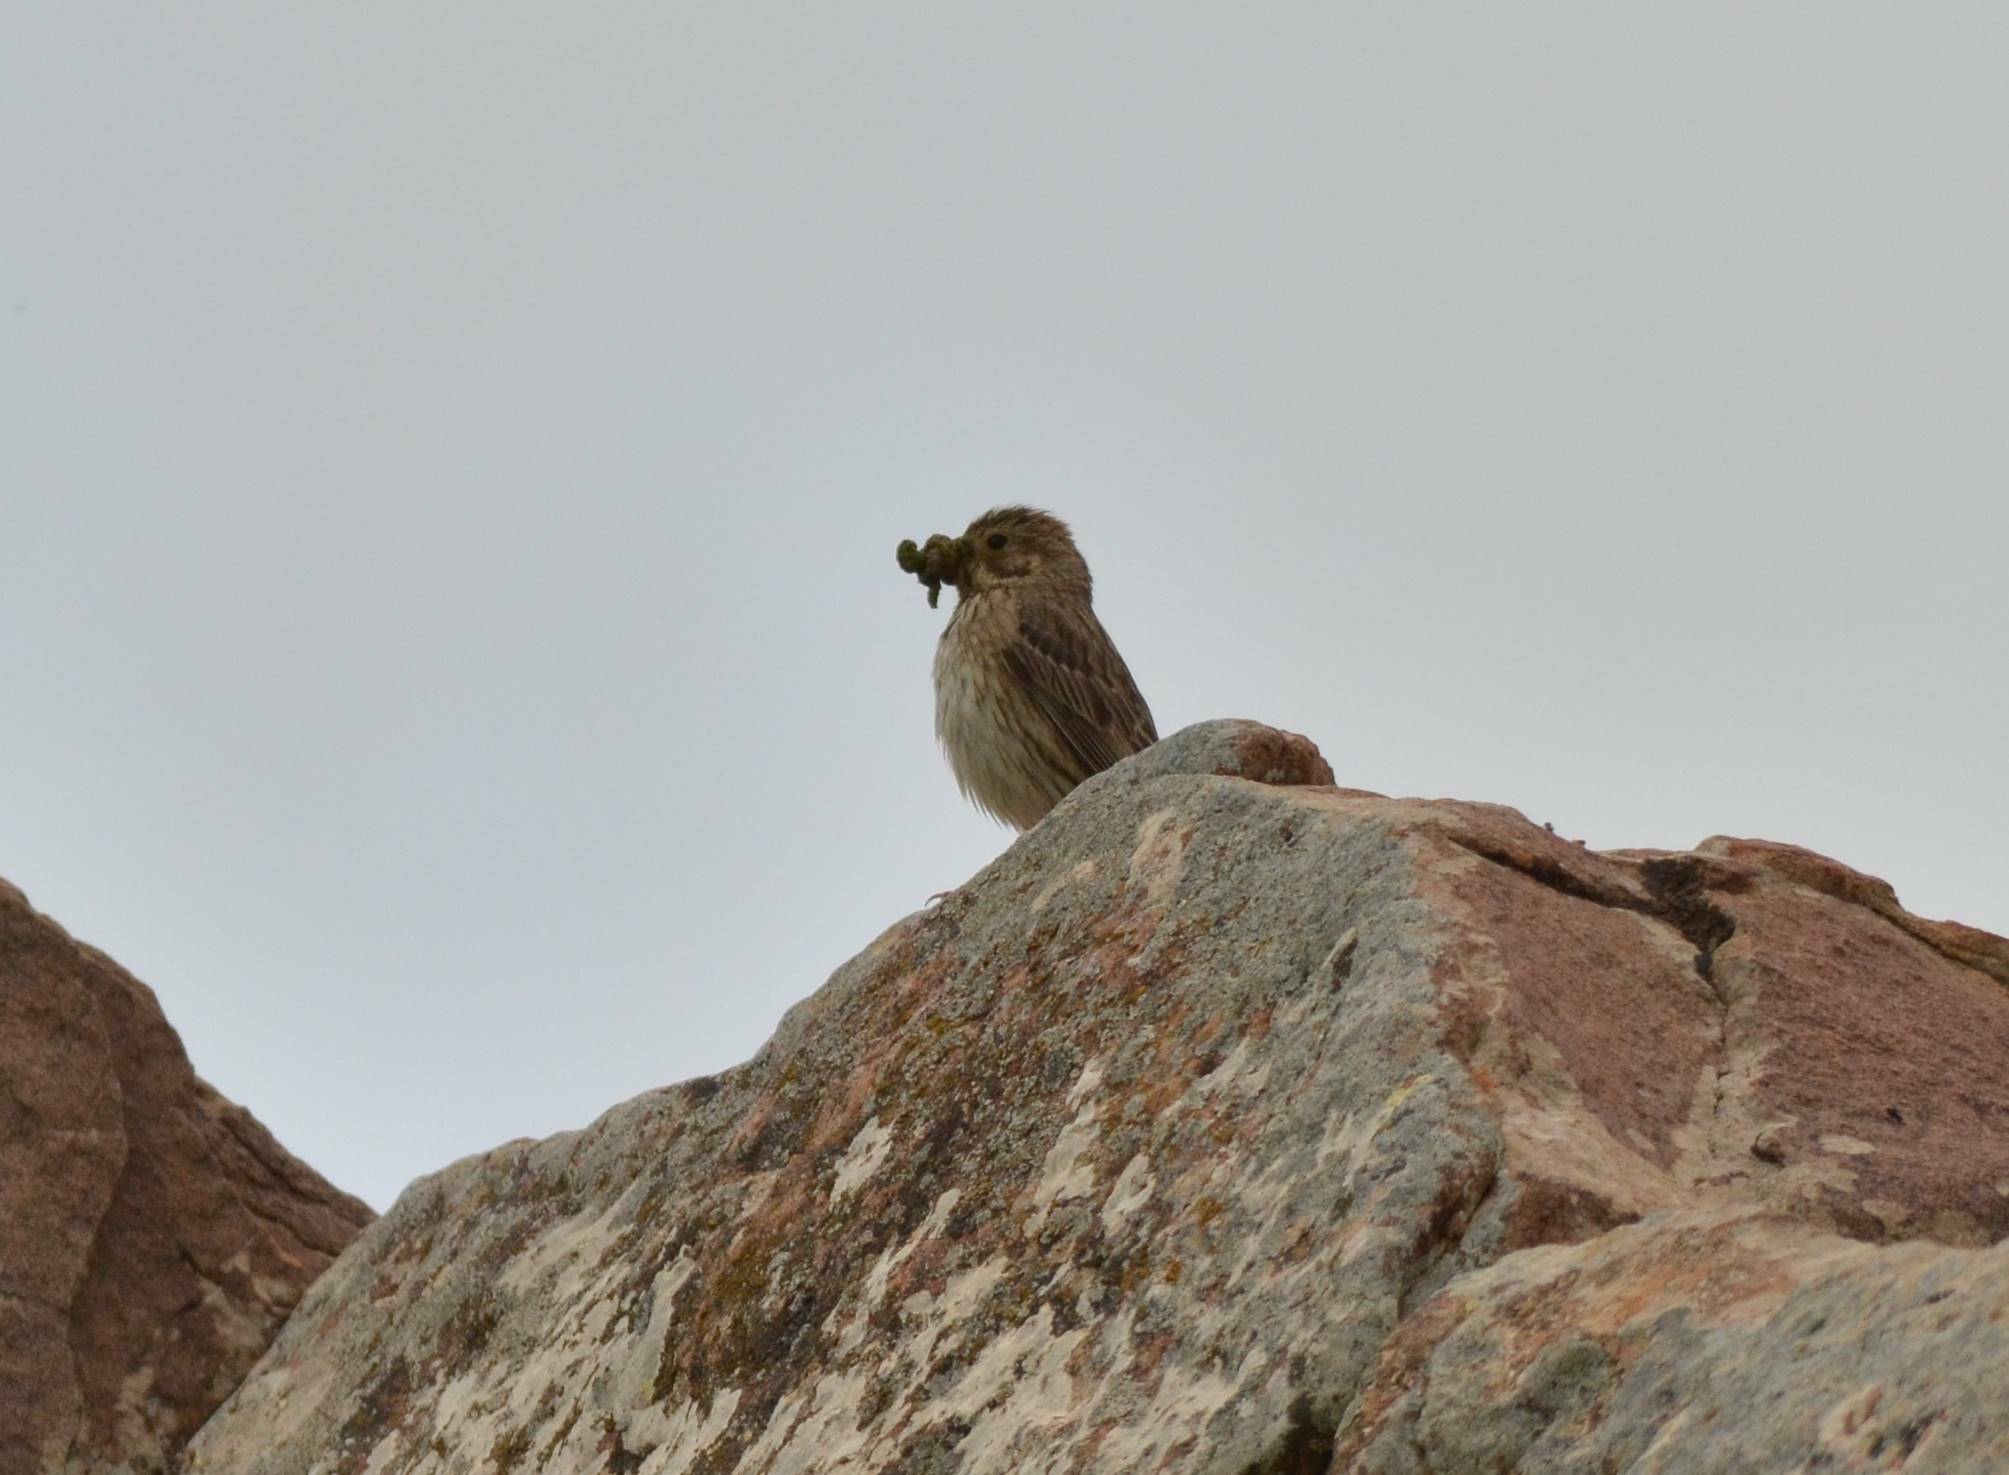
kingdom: Animalia
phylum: Chordata
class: Aves
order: Passeriformes
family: Emberizidae
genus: Emberiza
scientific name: Emberiza calandra
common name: Corn bunting
